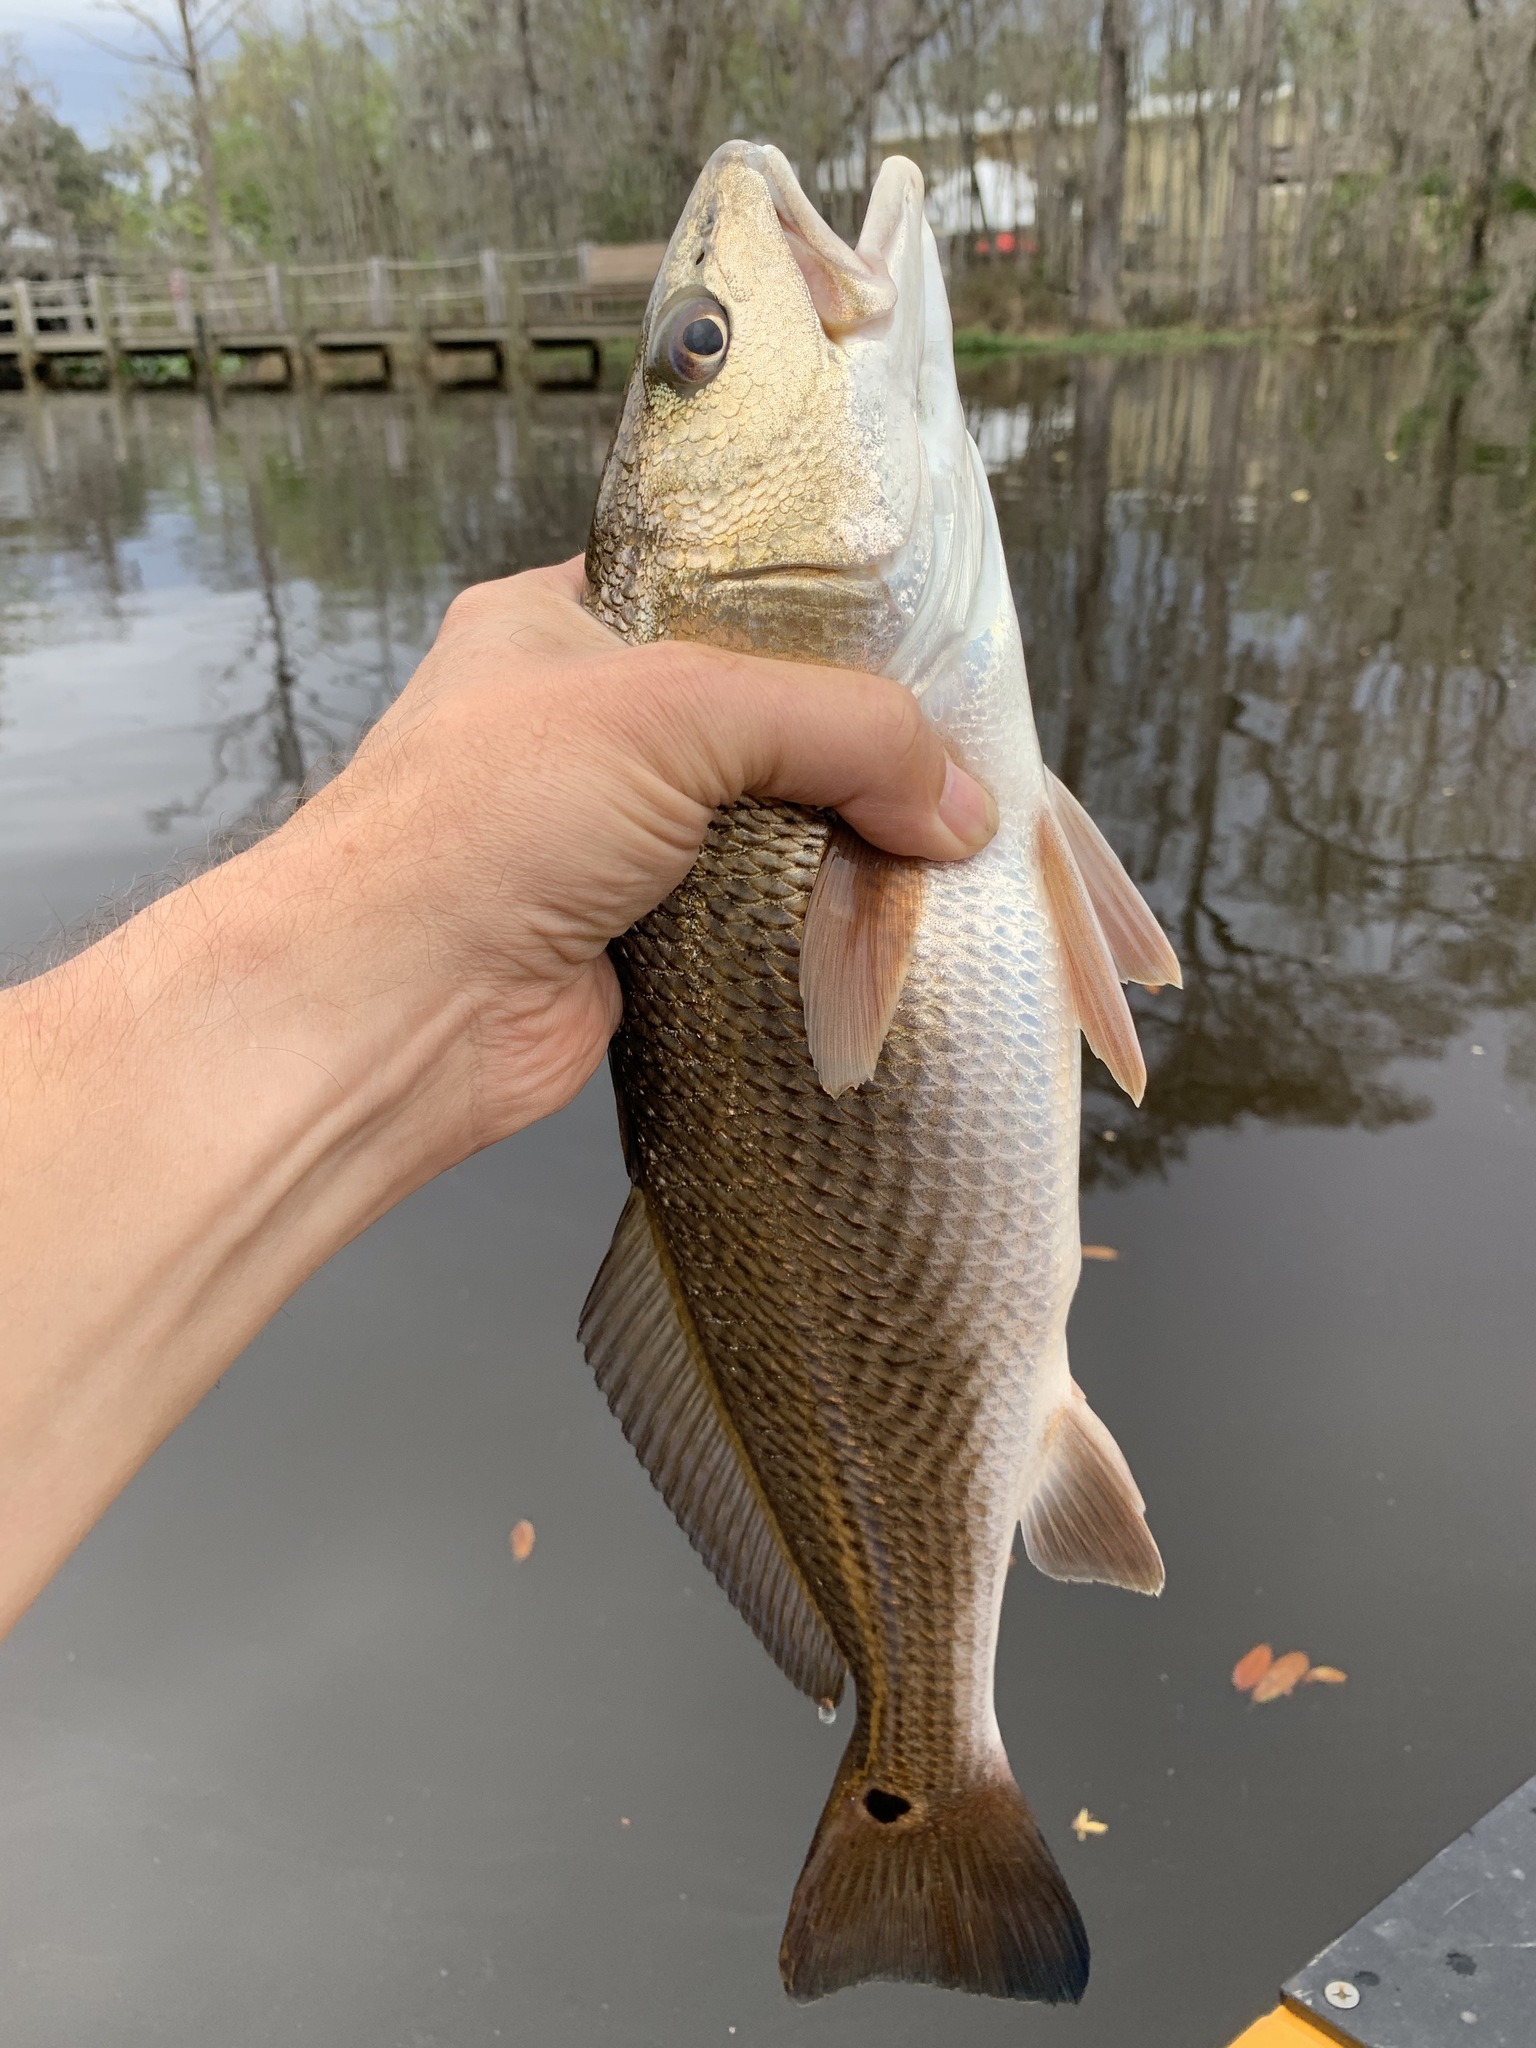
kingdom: Animalia
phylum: Chordata
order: Perciformes
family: Sciaenidae
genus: Sciaenops
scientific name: Sciaenops ocellatus
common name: Red drum
